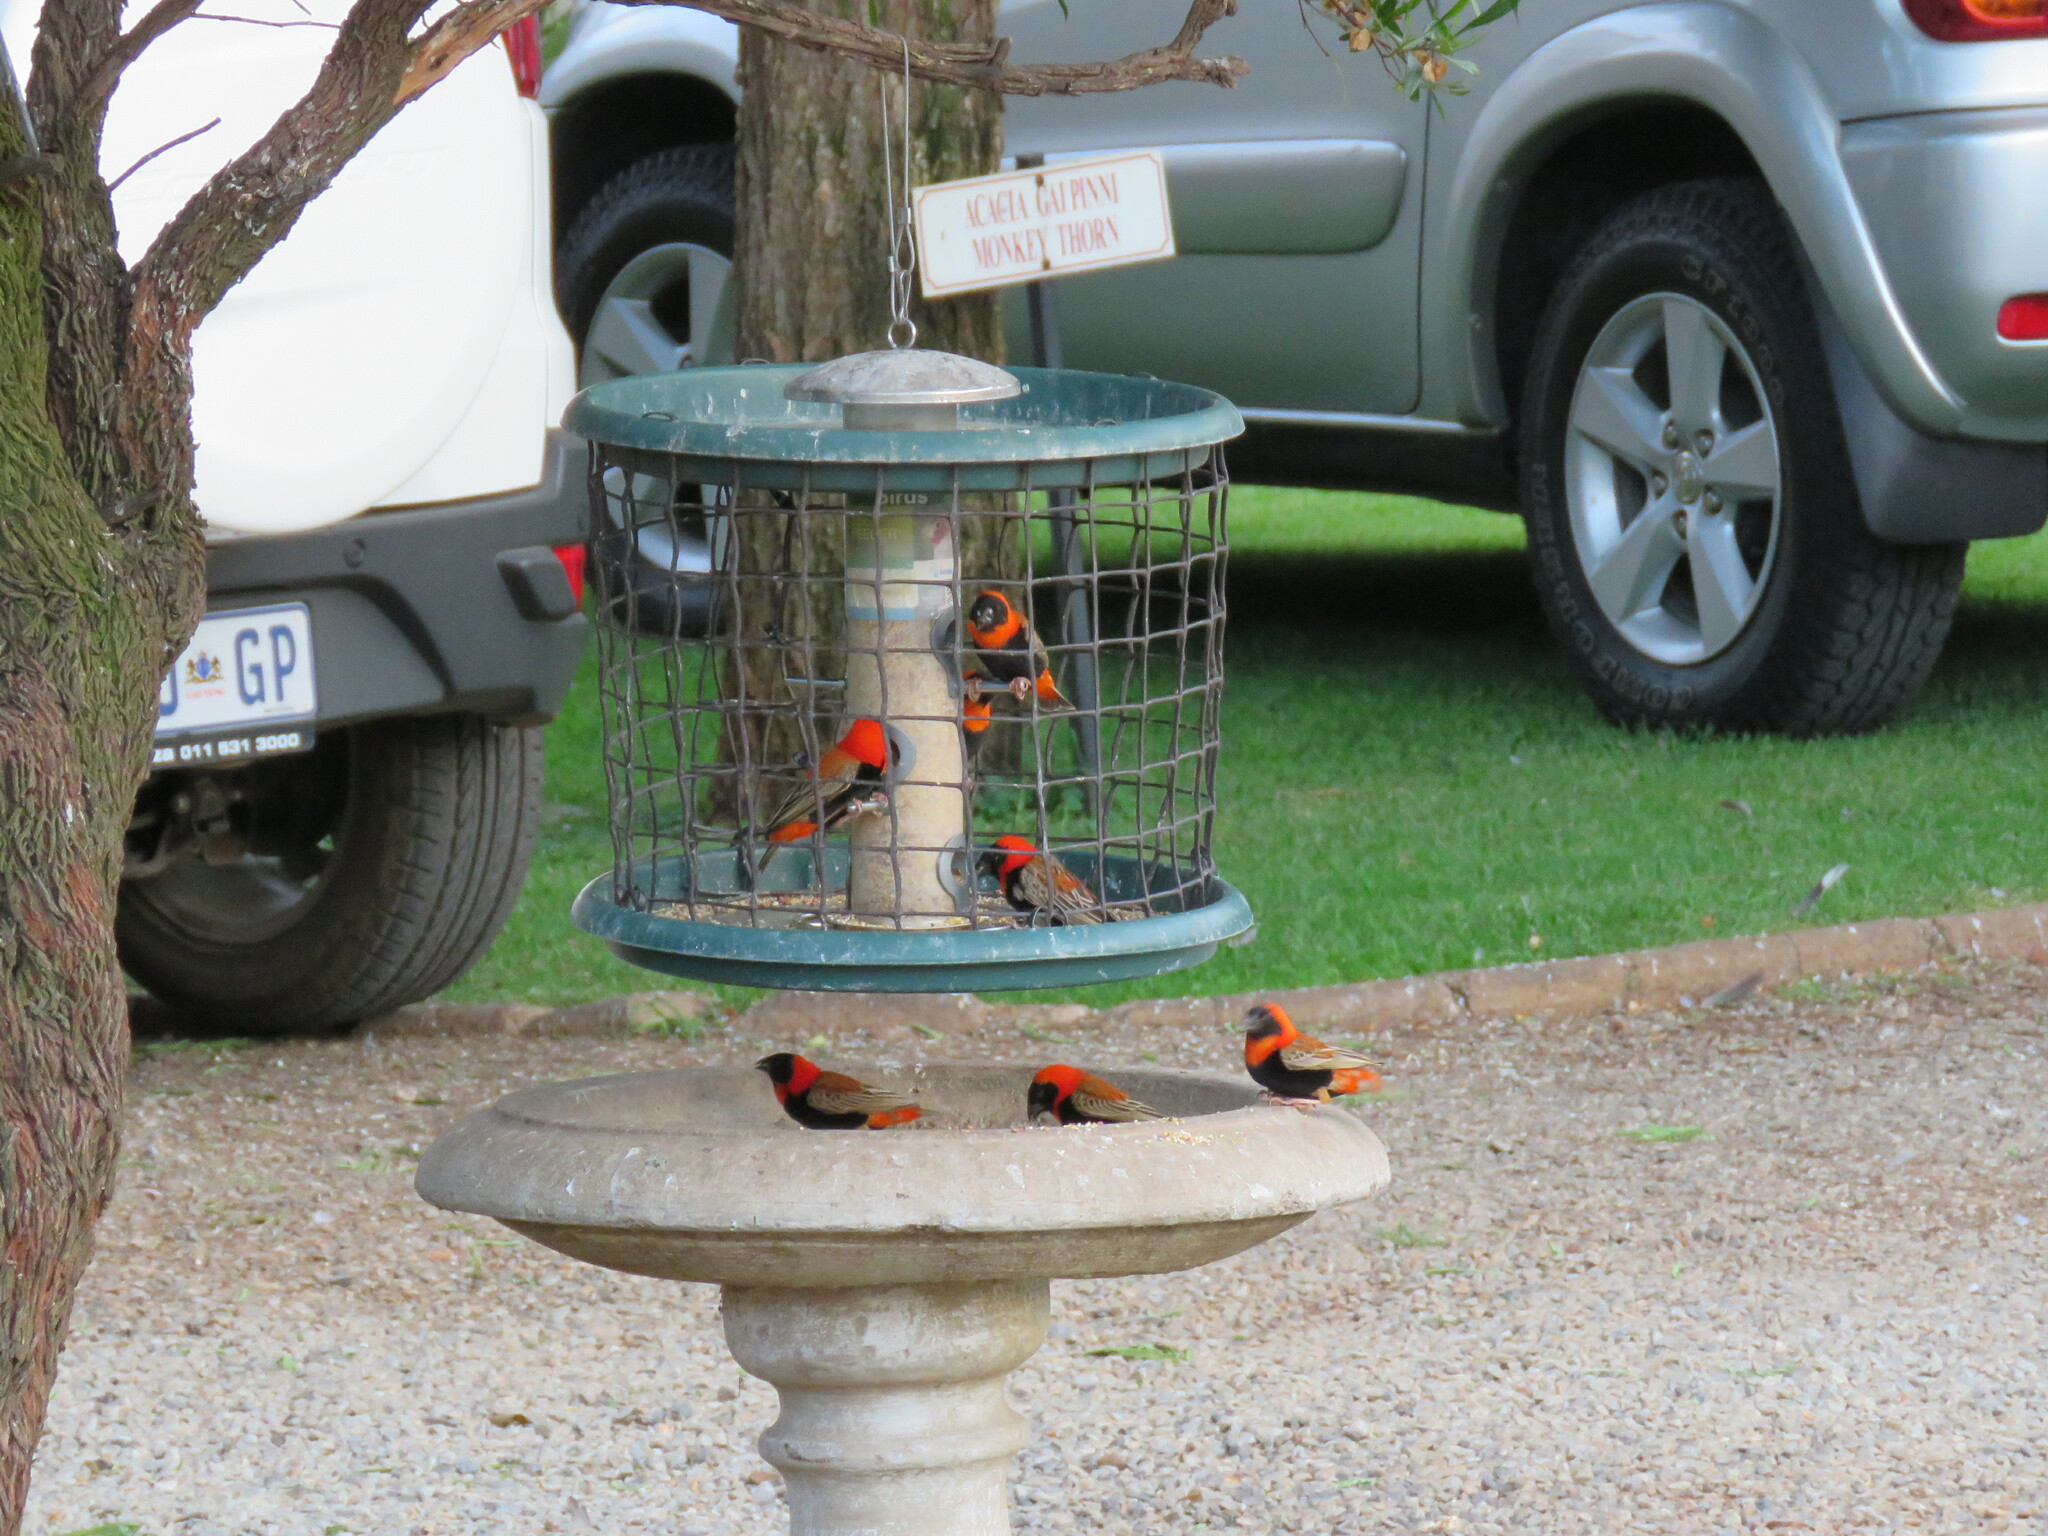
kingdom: Animalia
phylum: Chordata
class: Aves
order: Passeriformes
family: Ploceidae
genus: Euplectes
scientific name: Euplectes orix
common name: Southern red bishop
